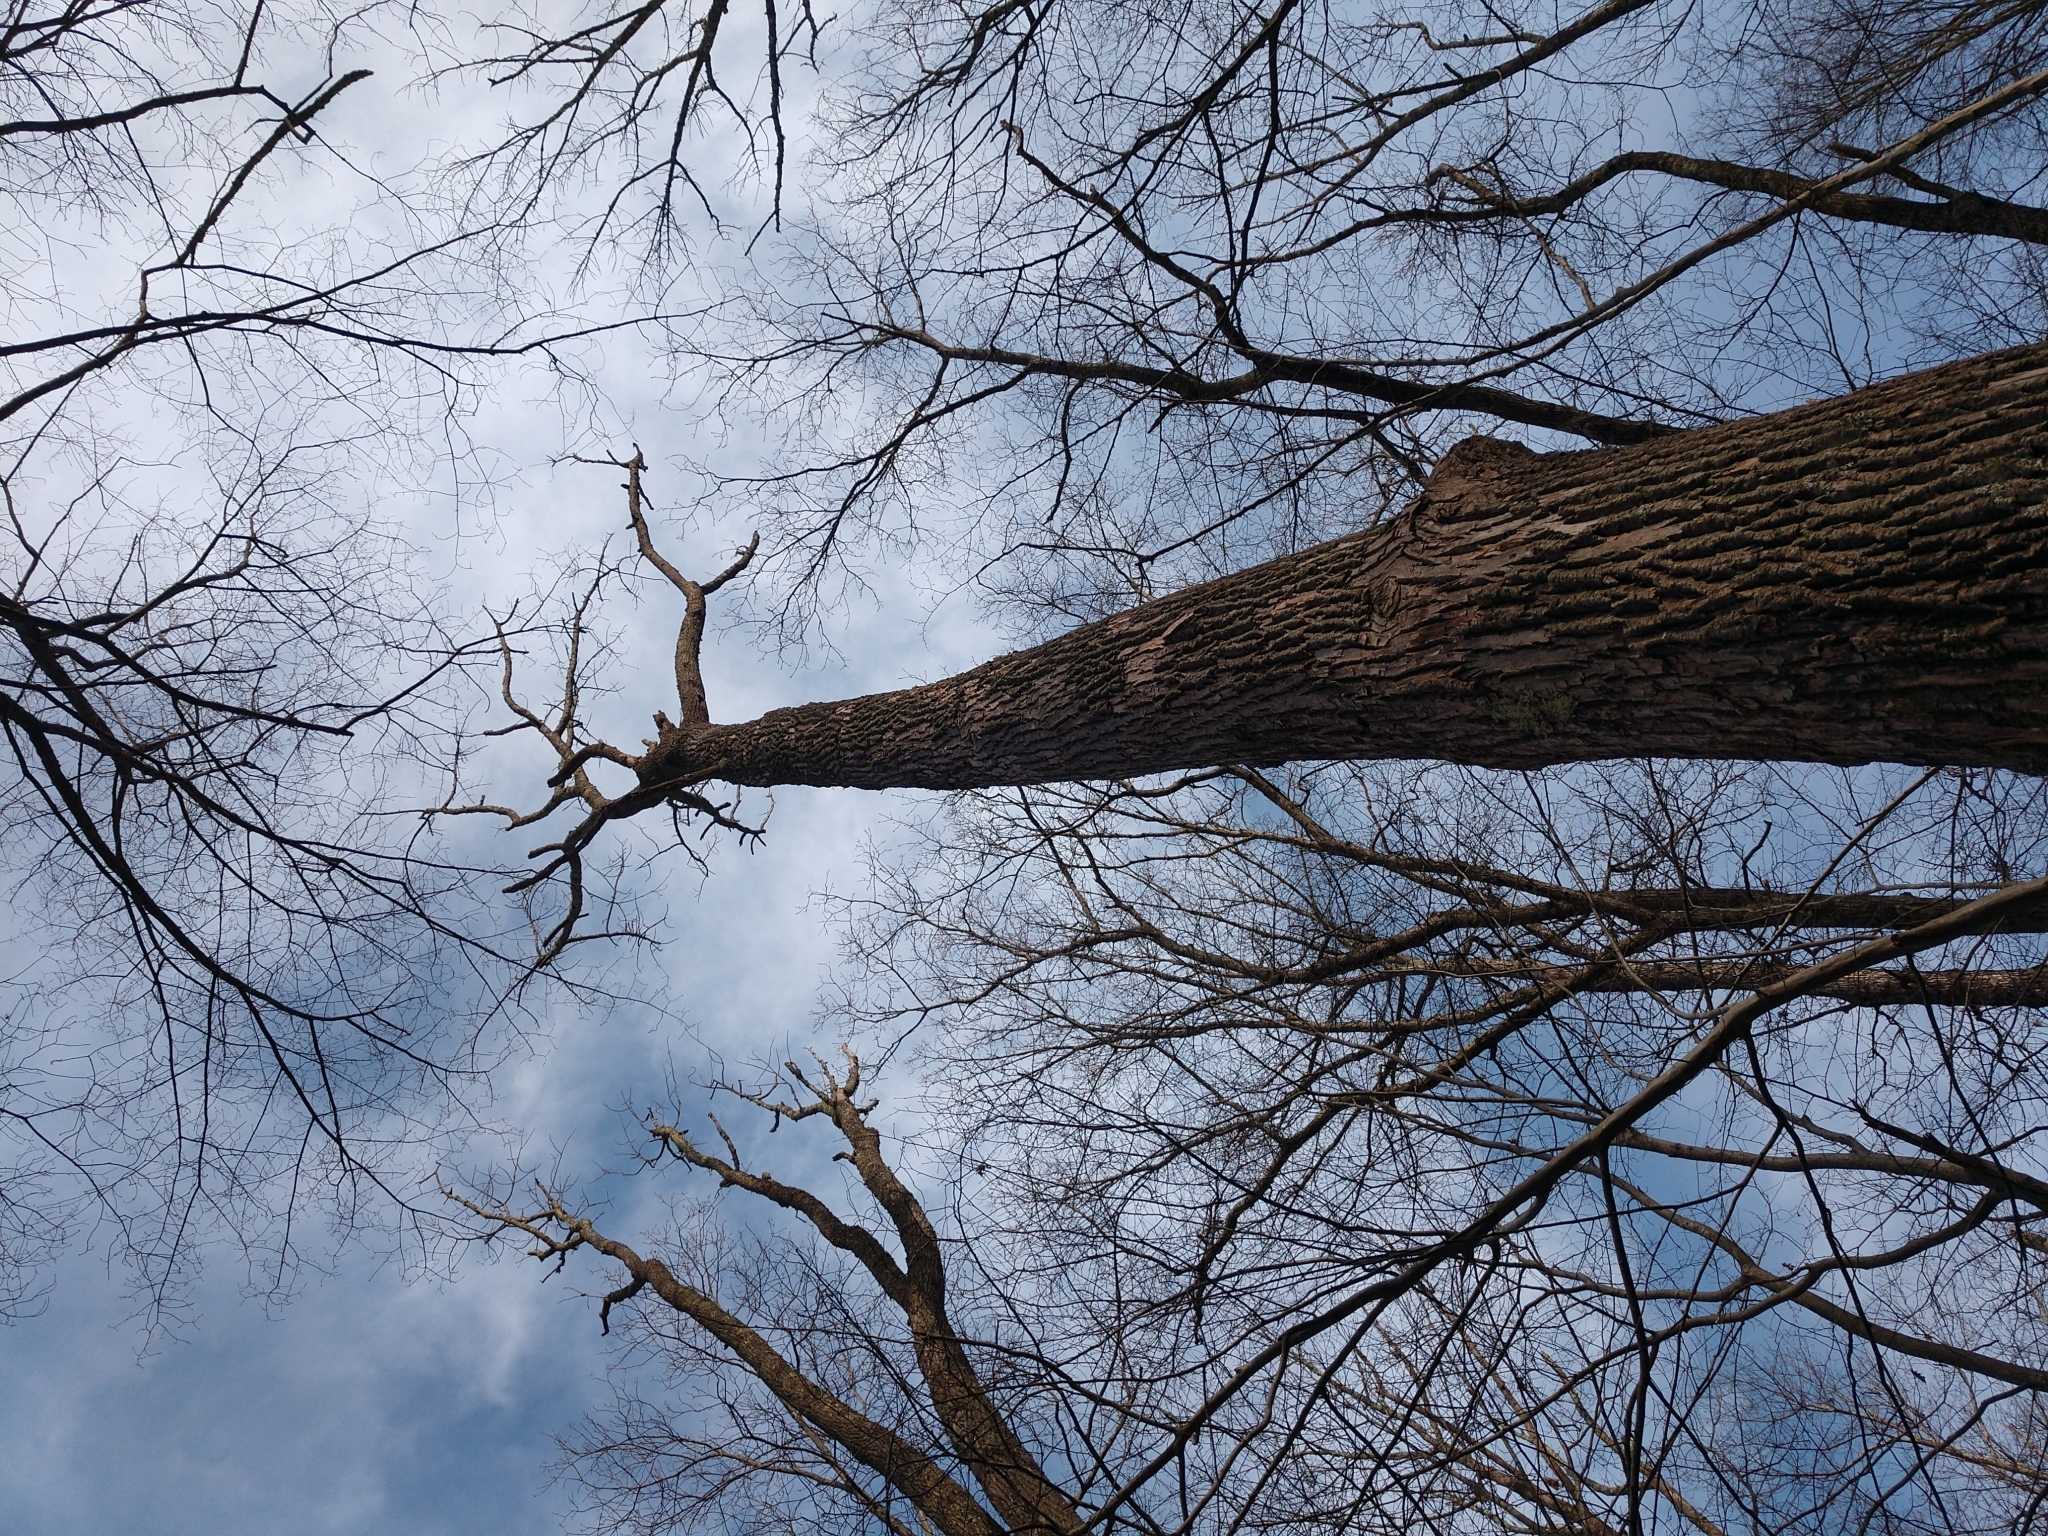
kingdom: Animalia
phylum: Arthropoda
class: Insecta
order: Coleoptera
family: Buprestidae
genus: Agrilus
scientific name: Agrilus planipennis
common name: Emerald ash borer
